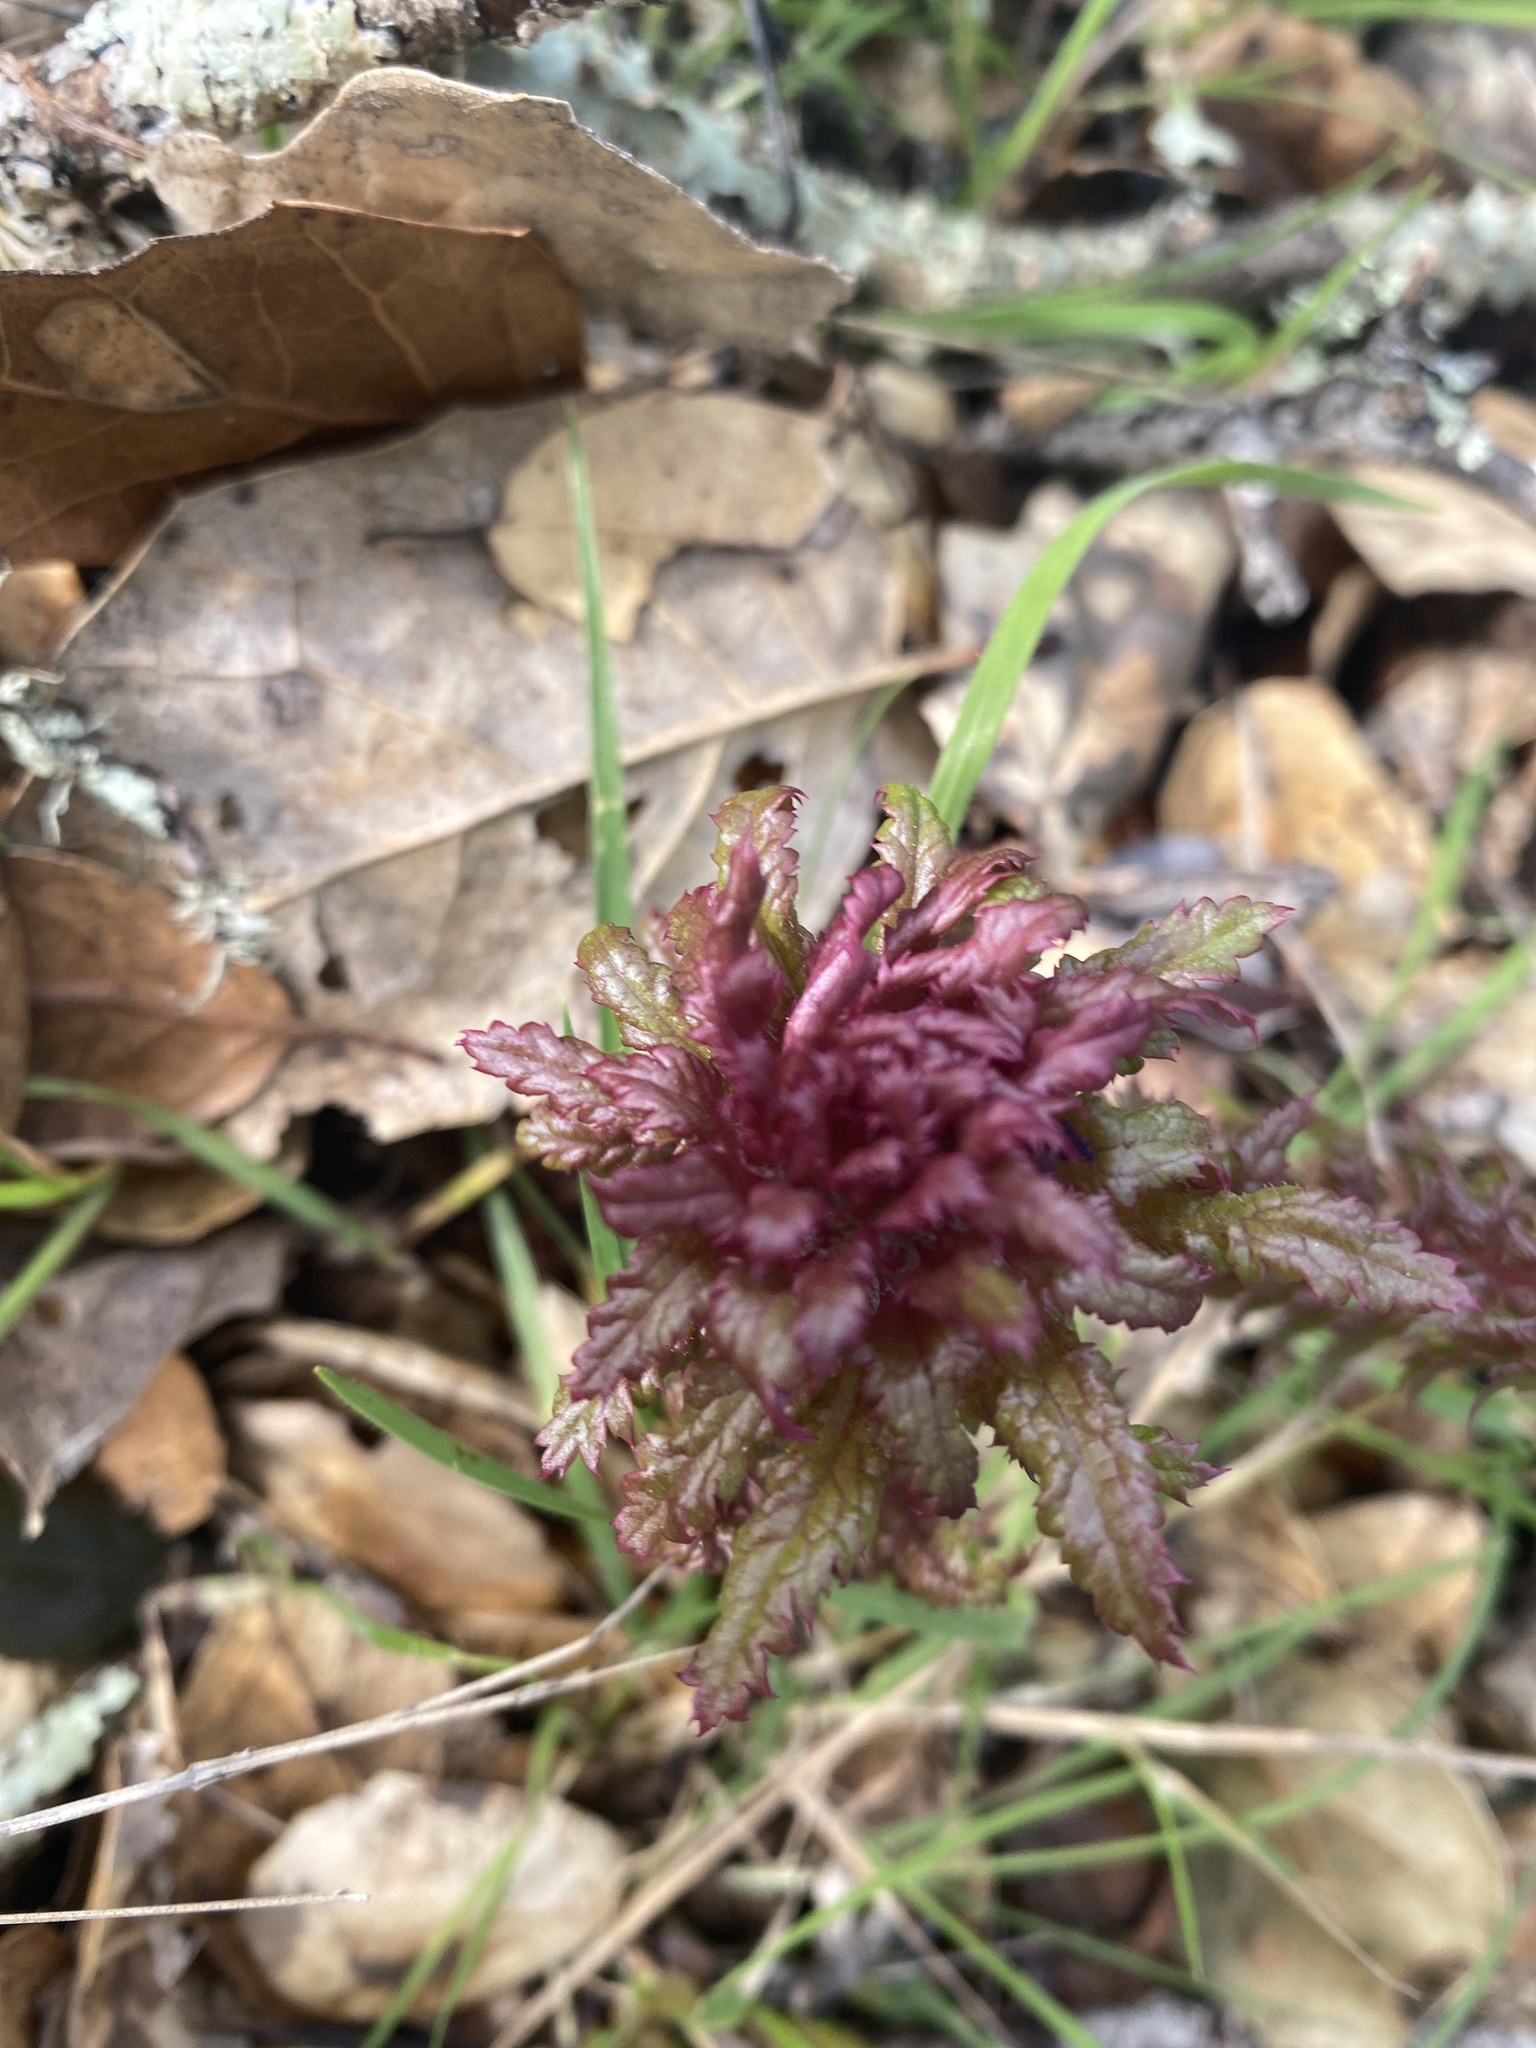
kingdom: Plantae
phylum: Tracheophyta
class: Magnoliopsida
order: Lamiales
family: Orobanchaceae
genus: Pedicularis
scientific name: Pedicularis densiflora
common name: Indian warrior
